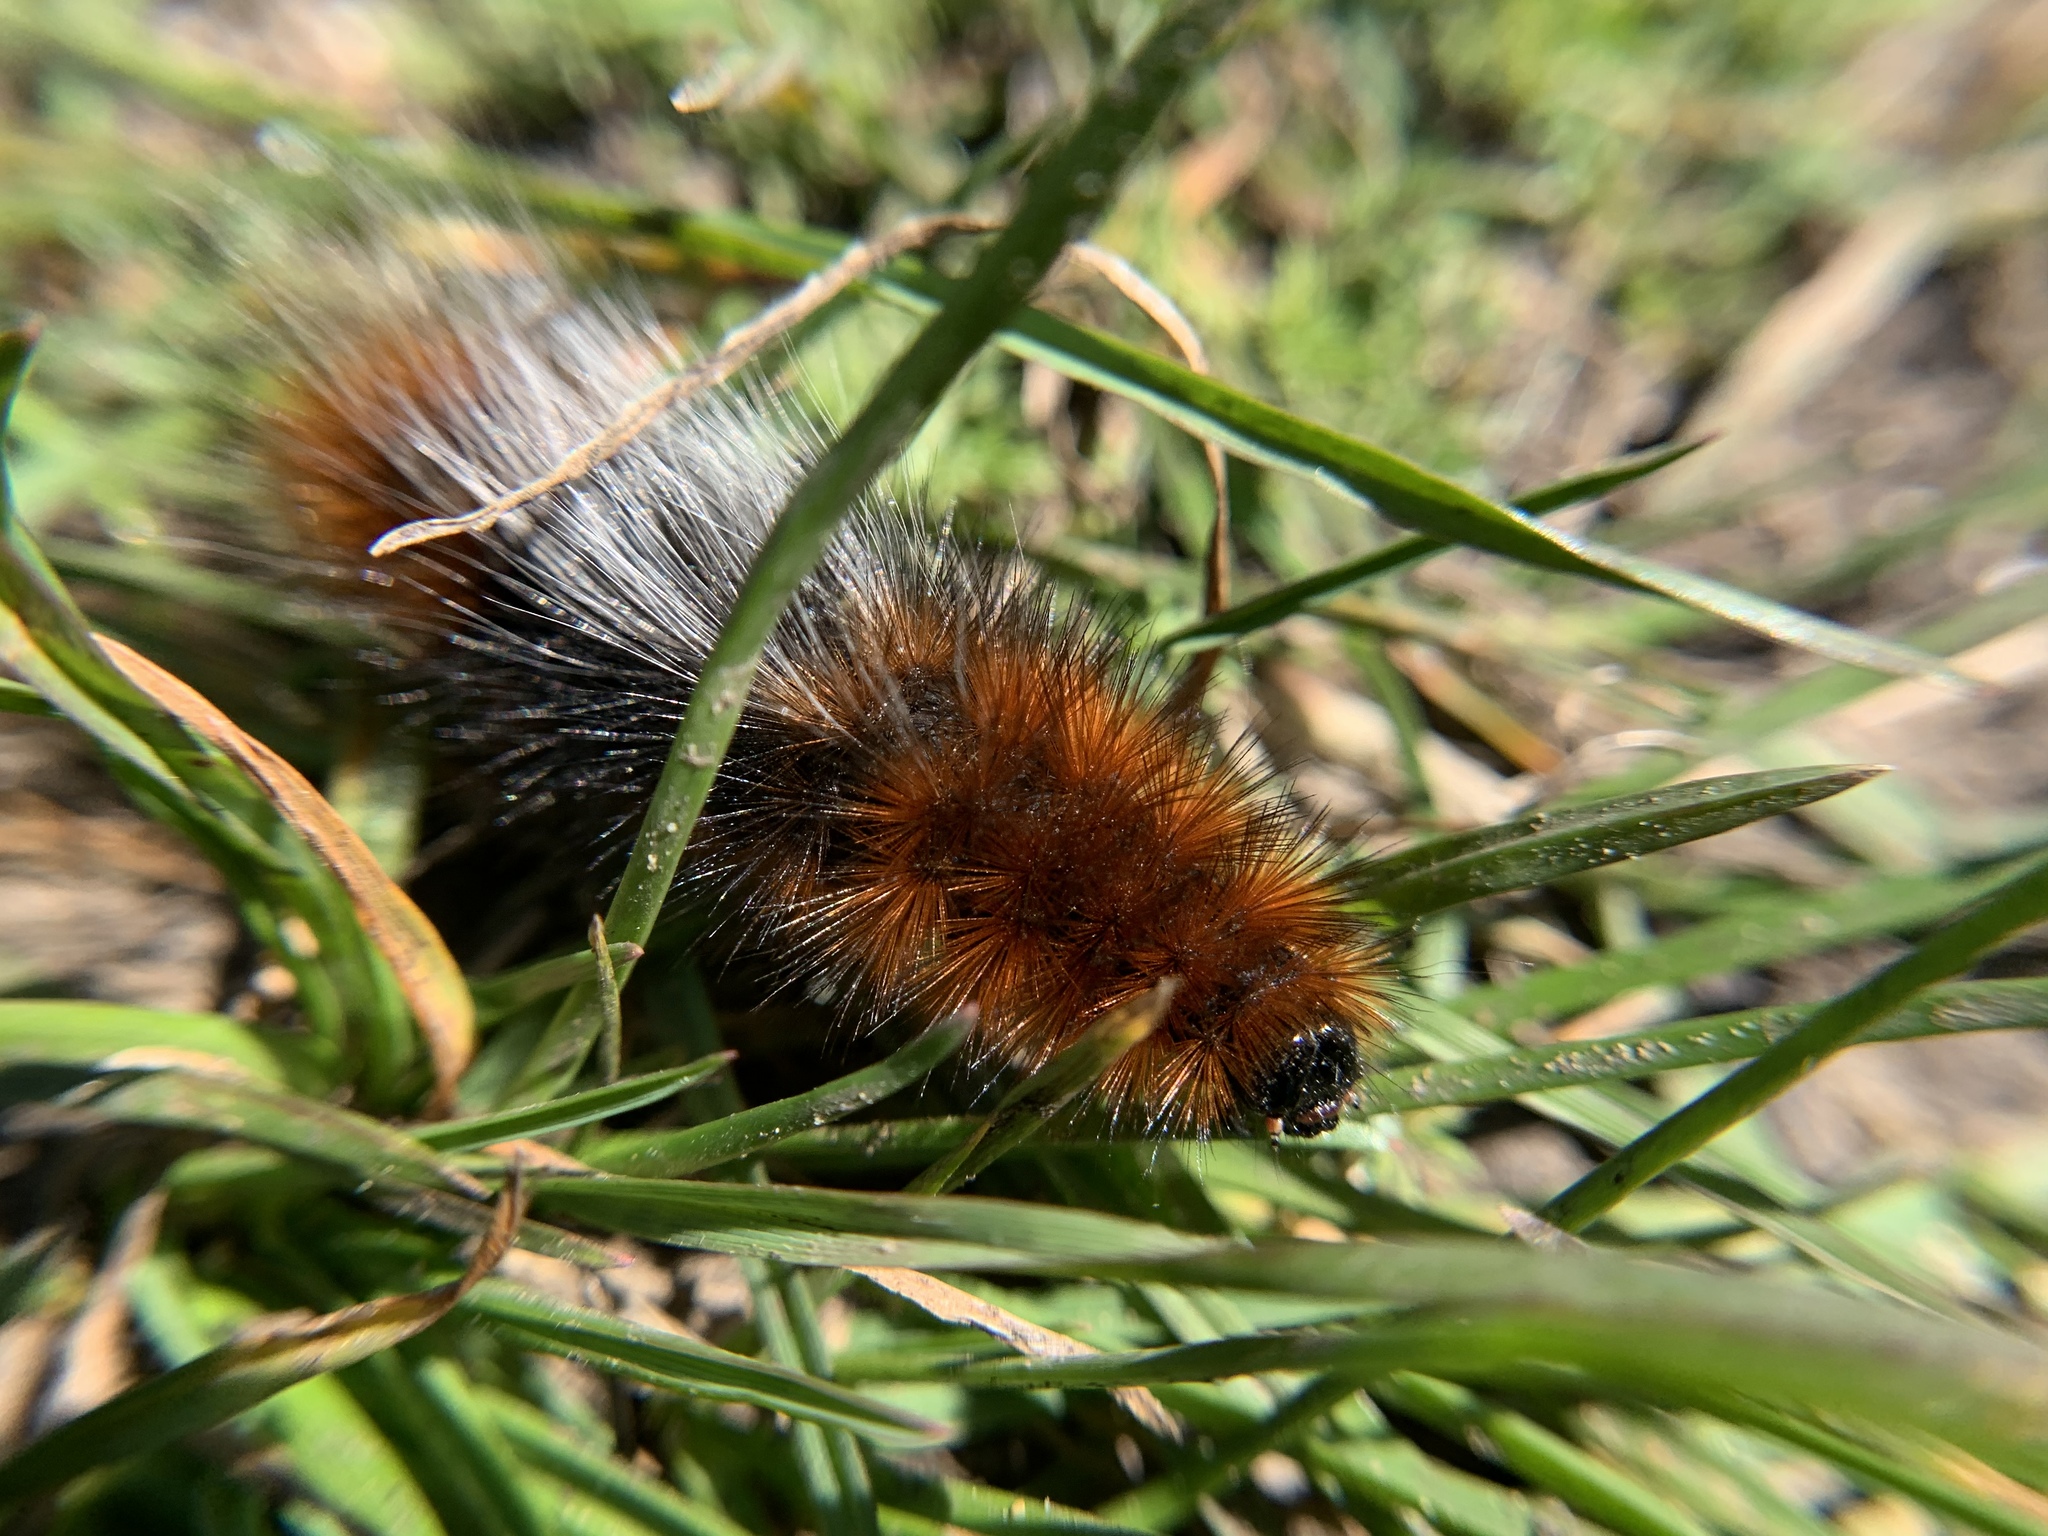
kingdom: Animalia
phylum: Arthropoda
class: Insecta
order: Lepidoptera
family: Erebidae
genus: Arctia
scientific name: Arctia tigrina
